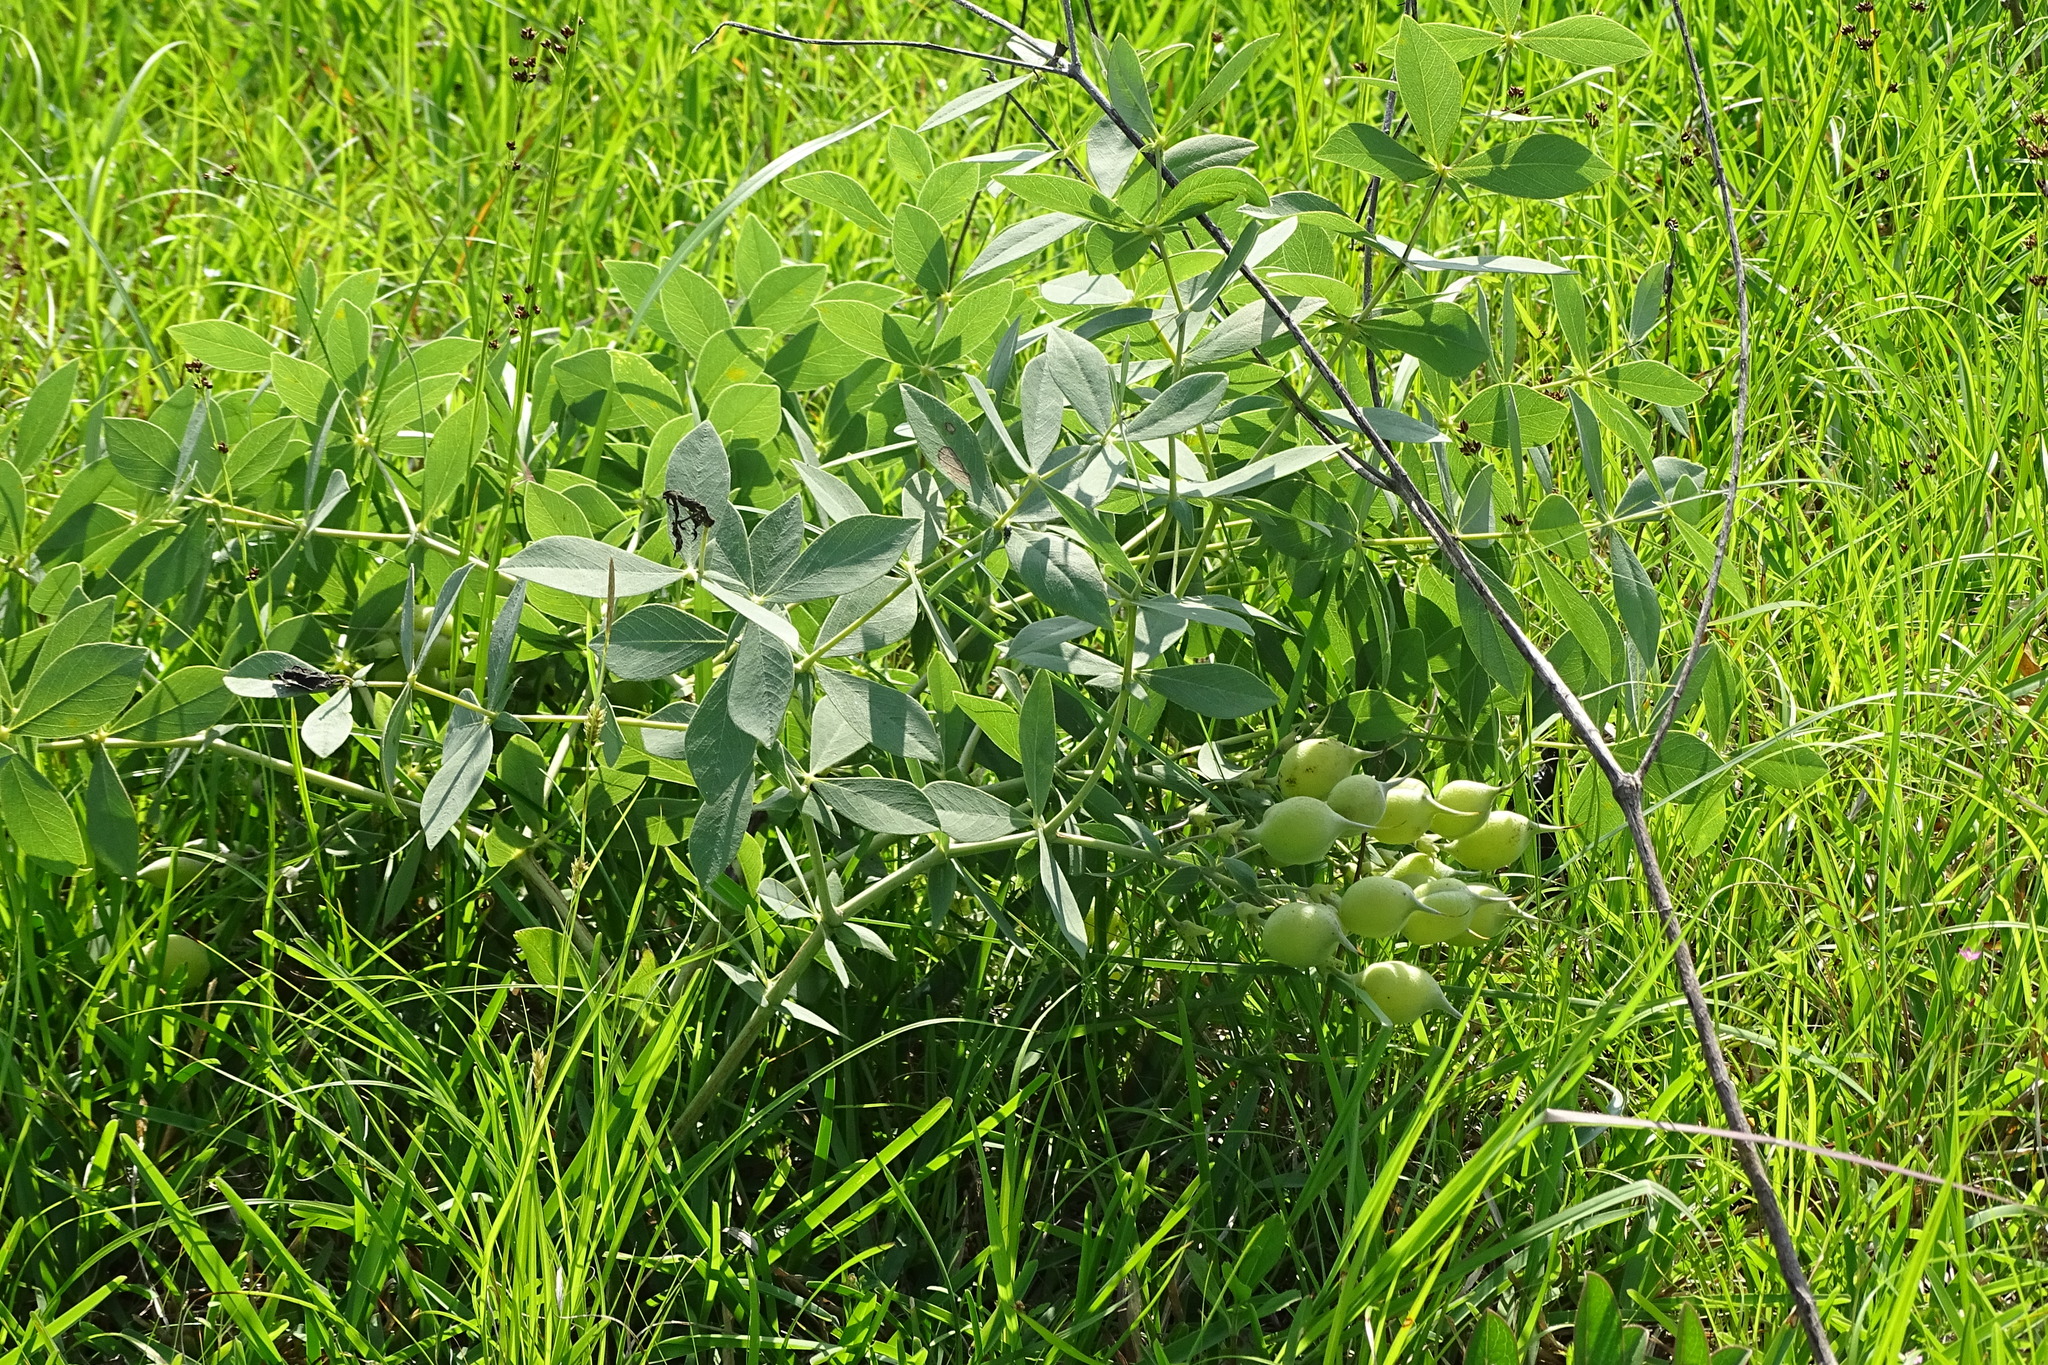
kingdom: Plantae
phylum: Tracheophyta
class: Magnoliopsida
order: Fabales
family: Fabaceae
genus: Baptisia
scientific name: Baptisia sphaerocarpa
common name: Round wild indigo
